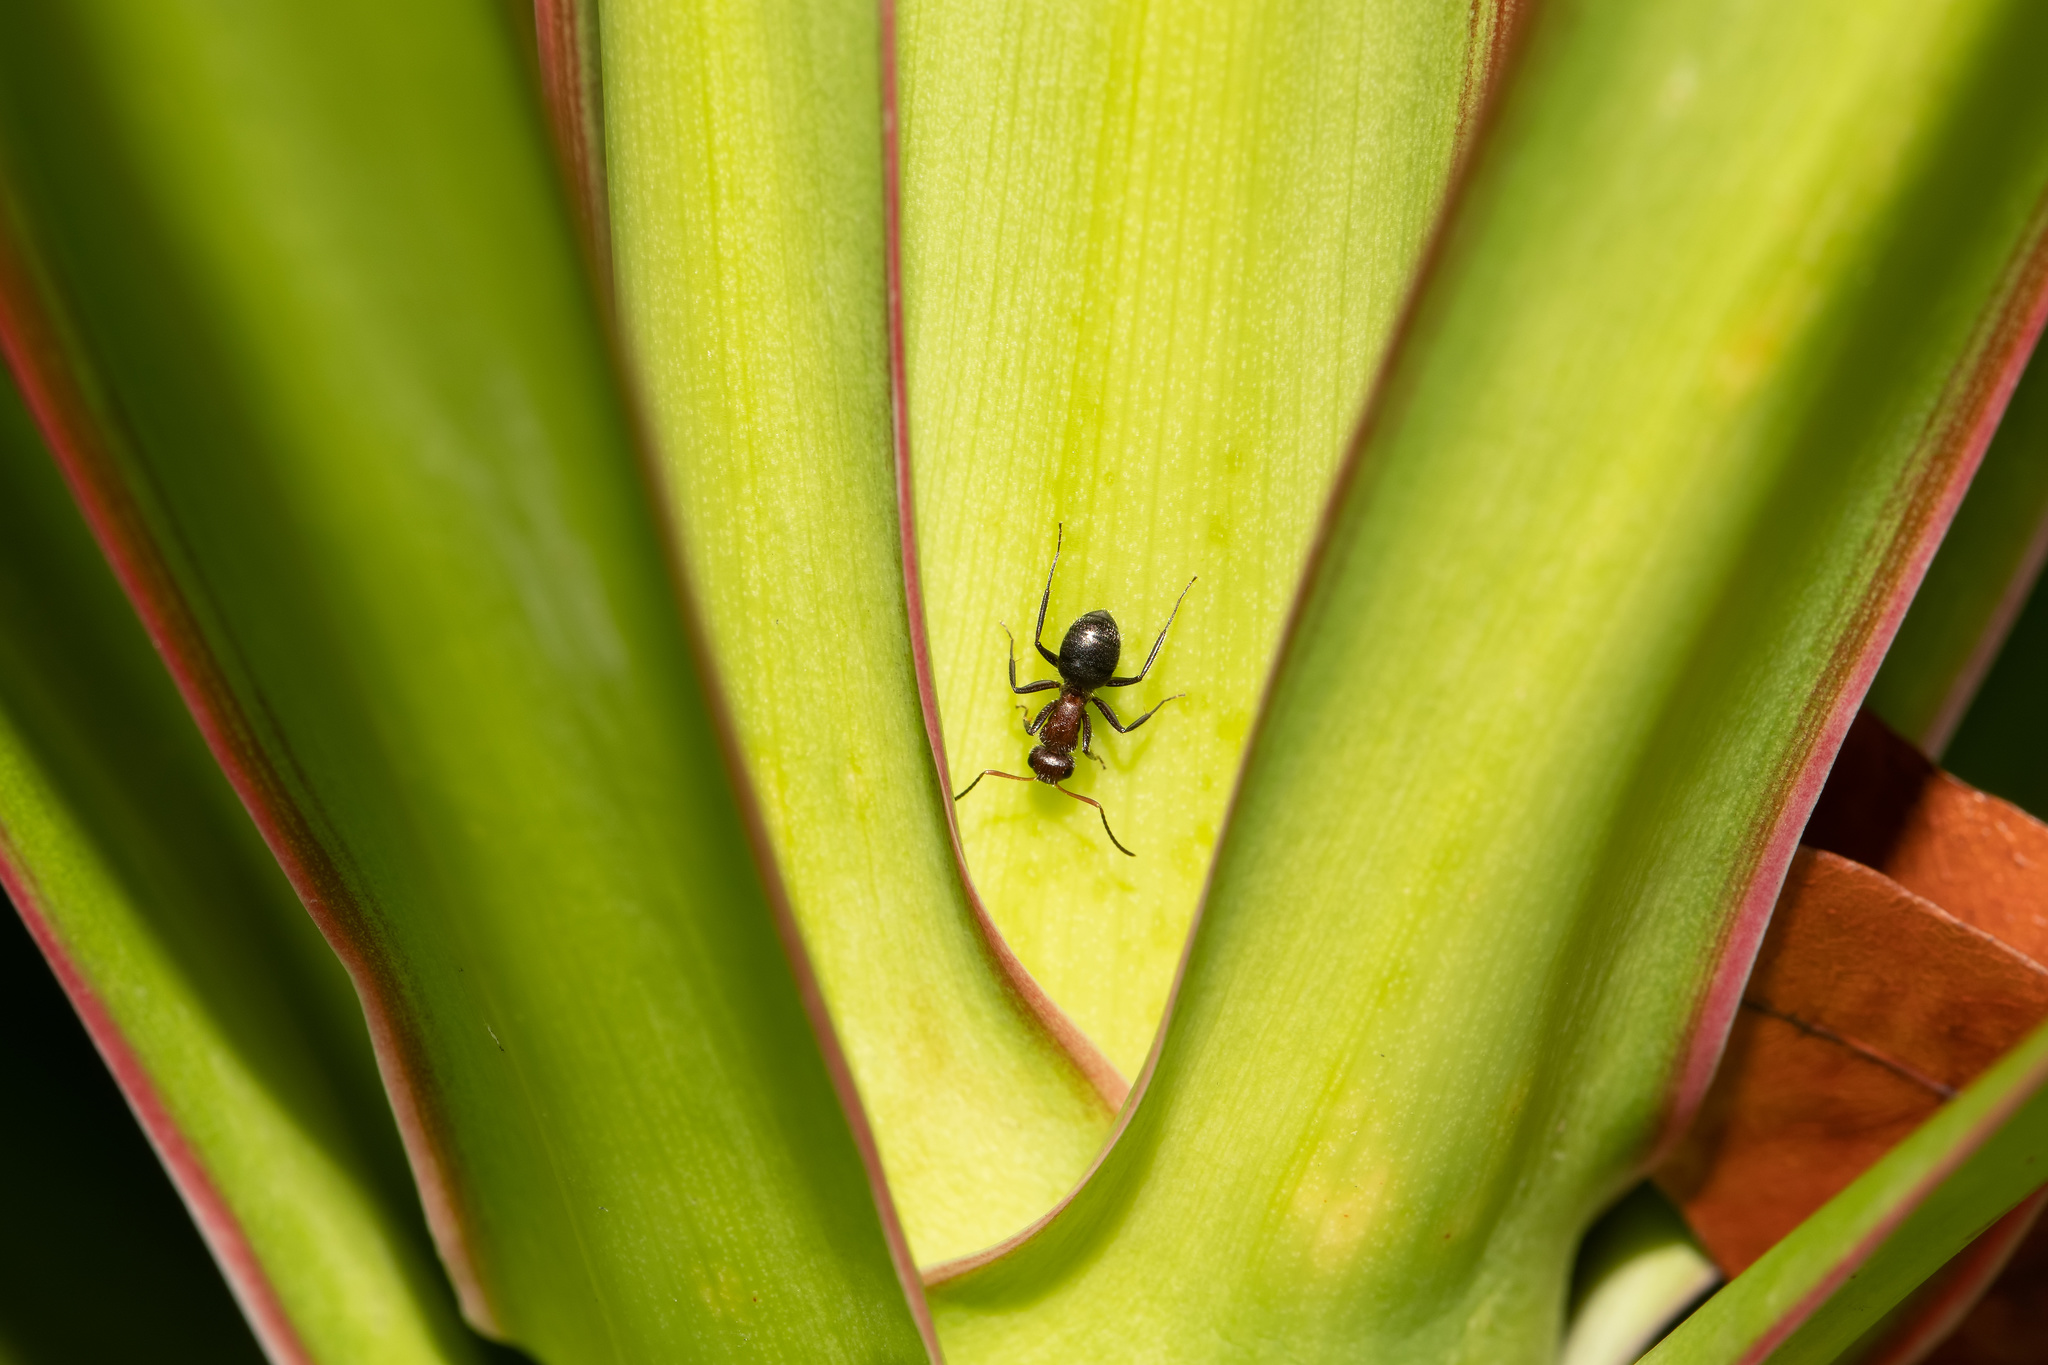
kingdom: Animalia
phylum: Arthropoda
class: Insecta
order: Hymenoptera
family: Formicidae
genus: Camponotus
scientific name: Camponotus planatus
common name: Compact carpenter ant
